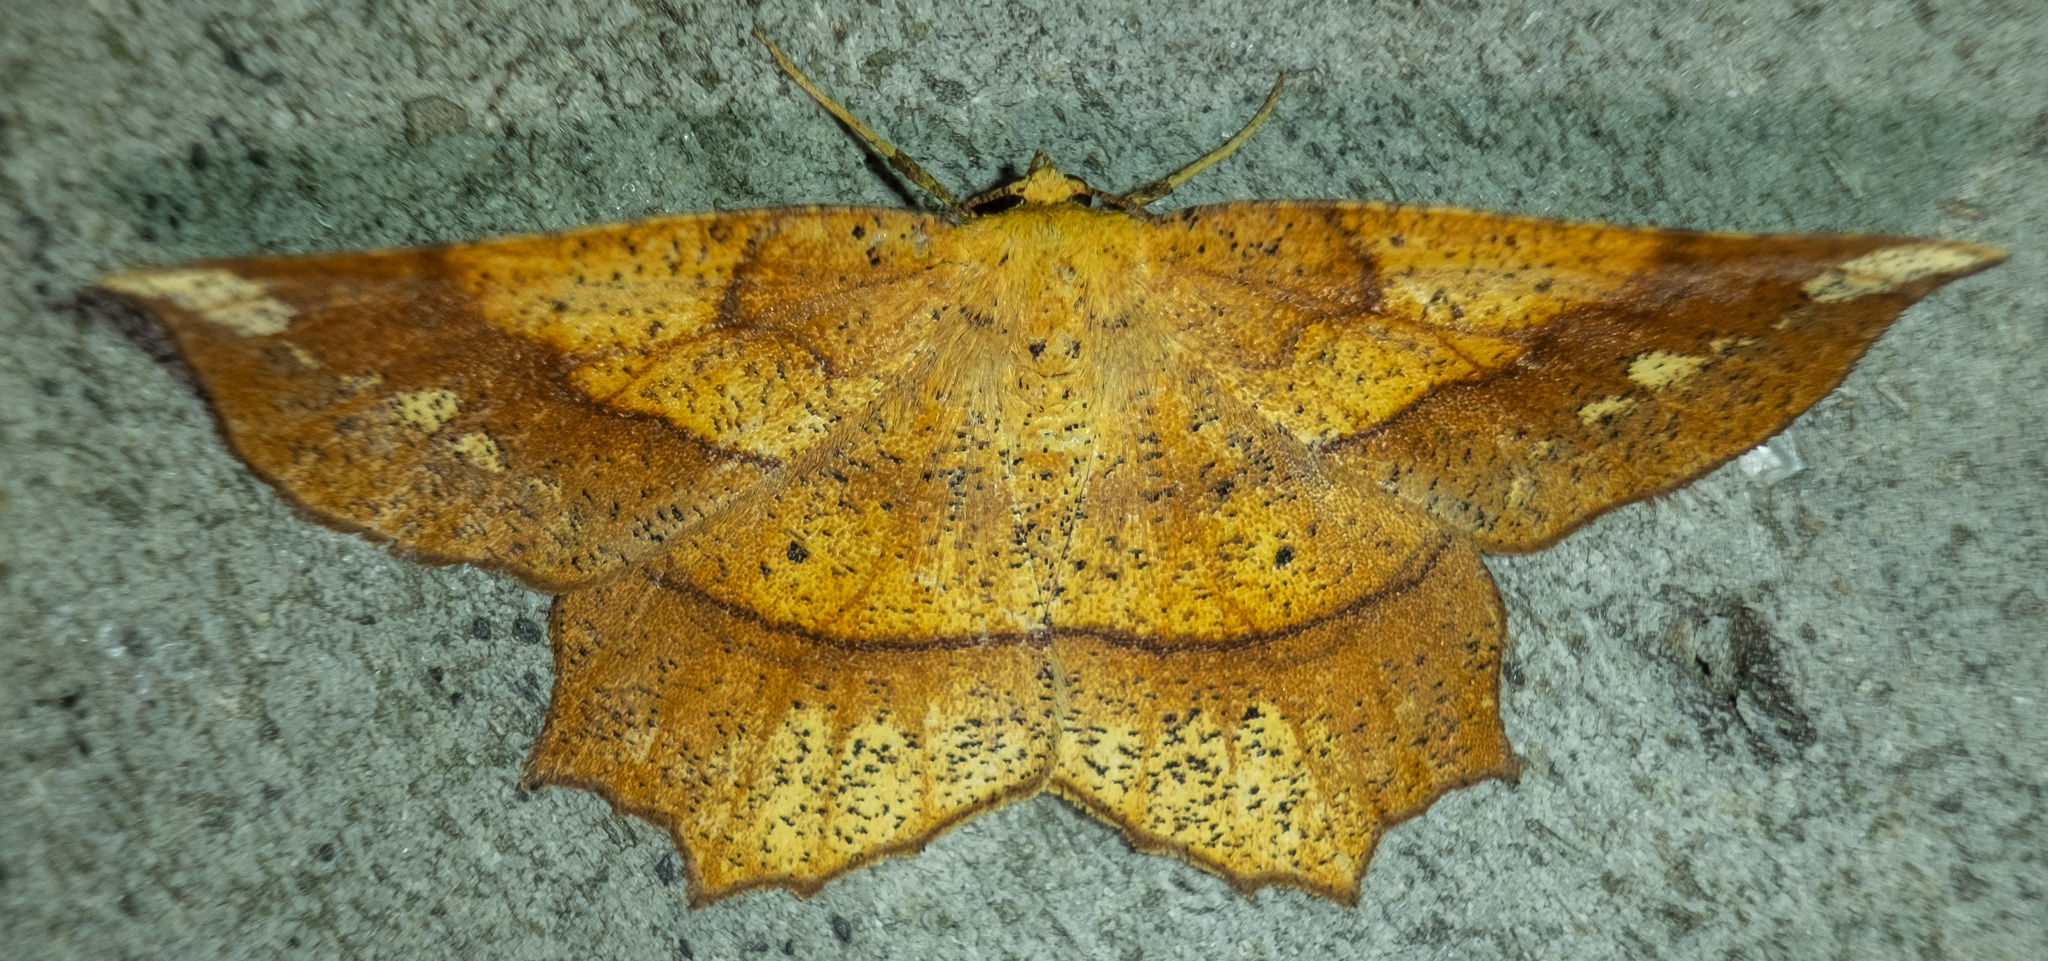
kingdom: Animalia
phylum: Arthropoda
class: Insecta
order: Lepidoptera
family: Geometridae
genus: Euchlaena
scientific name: Euchlaena amoenaria
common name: Deep yellow euchlaena
